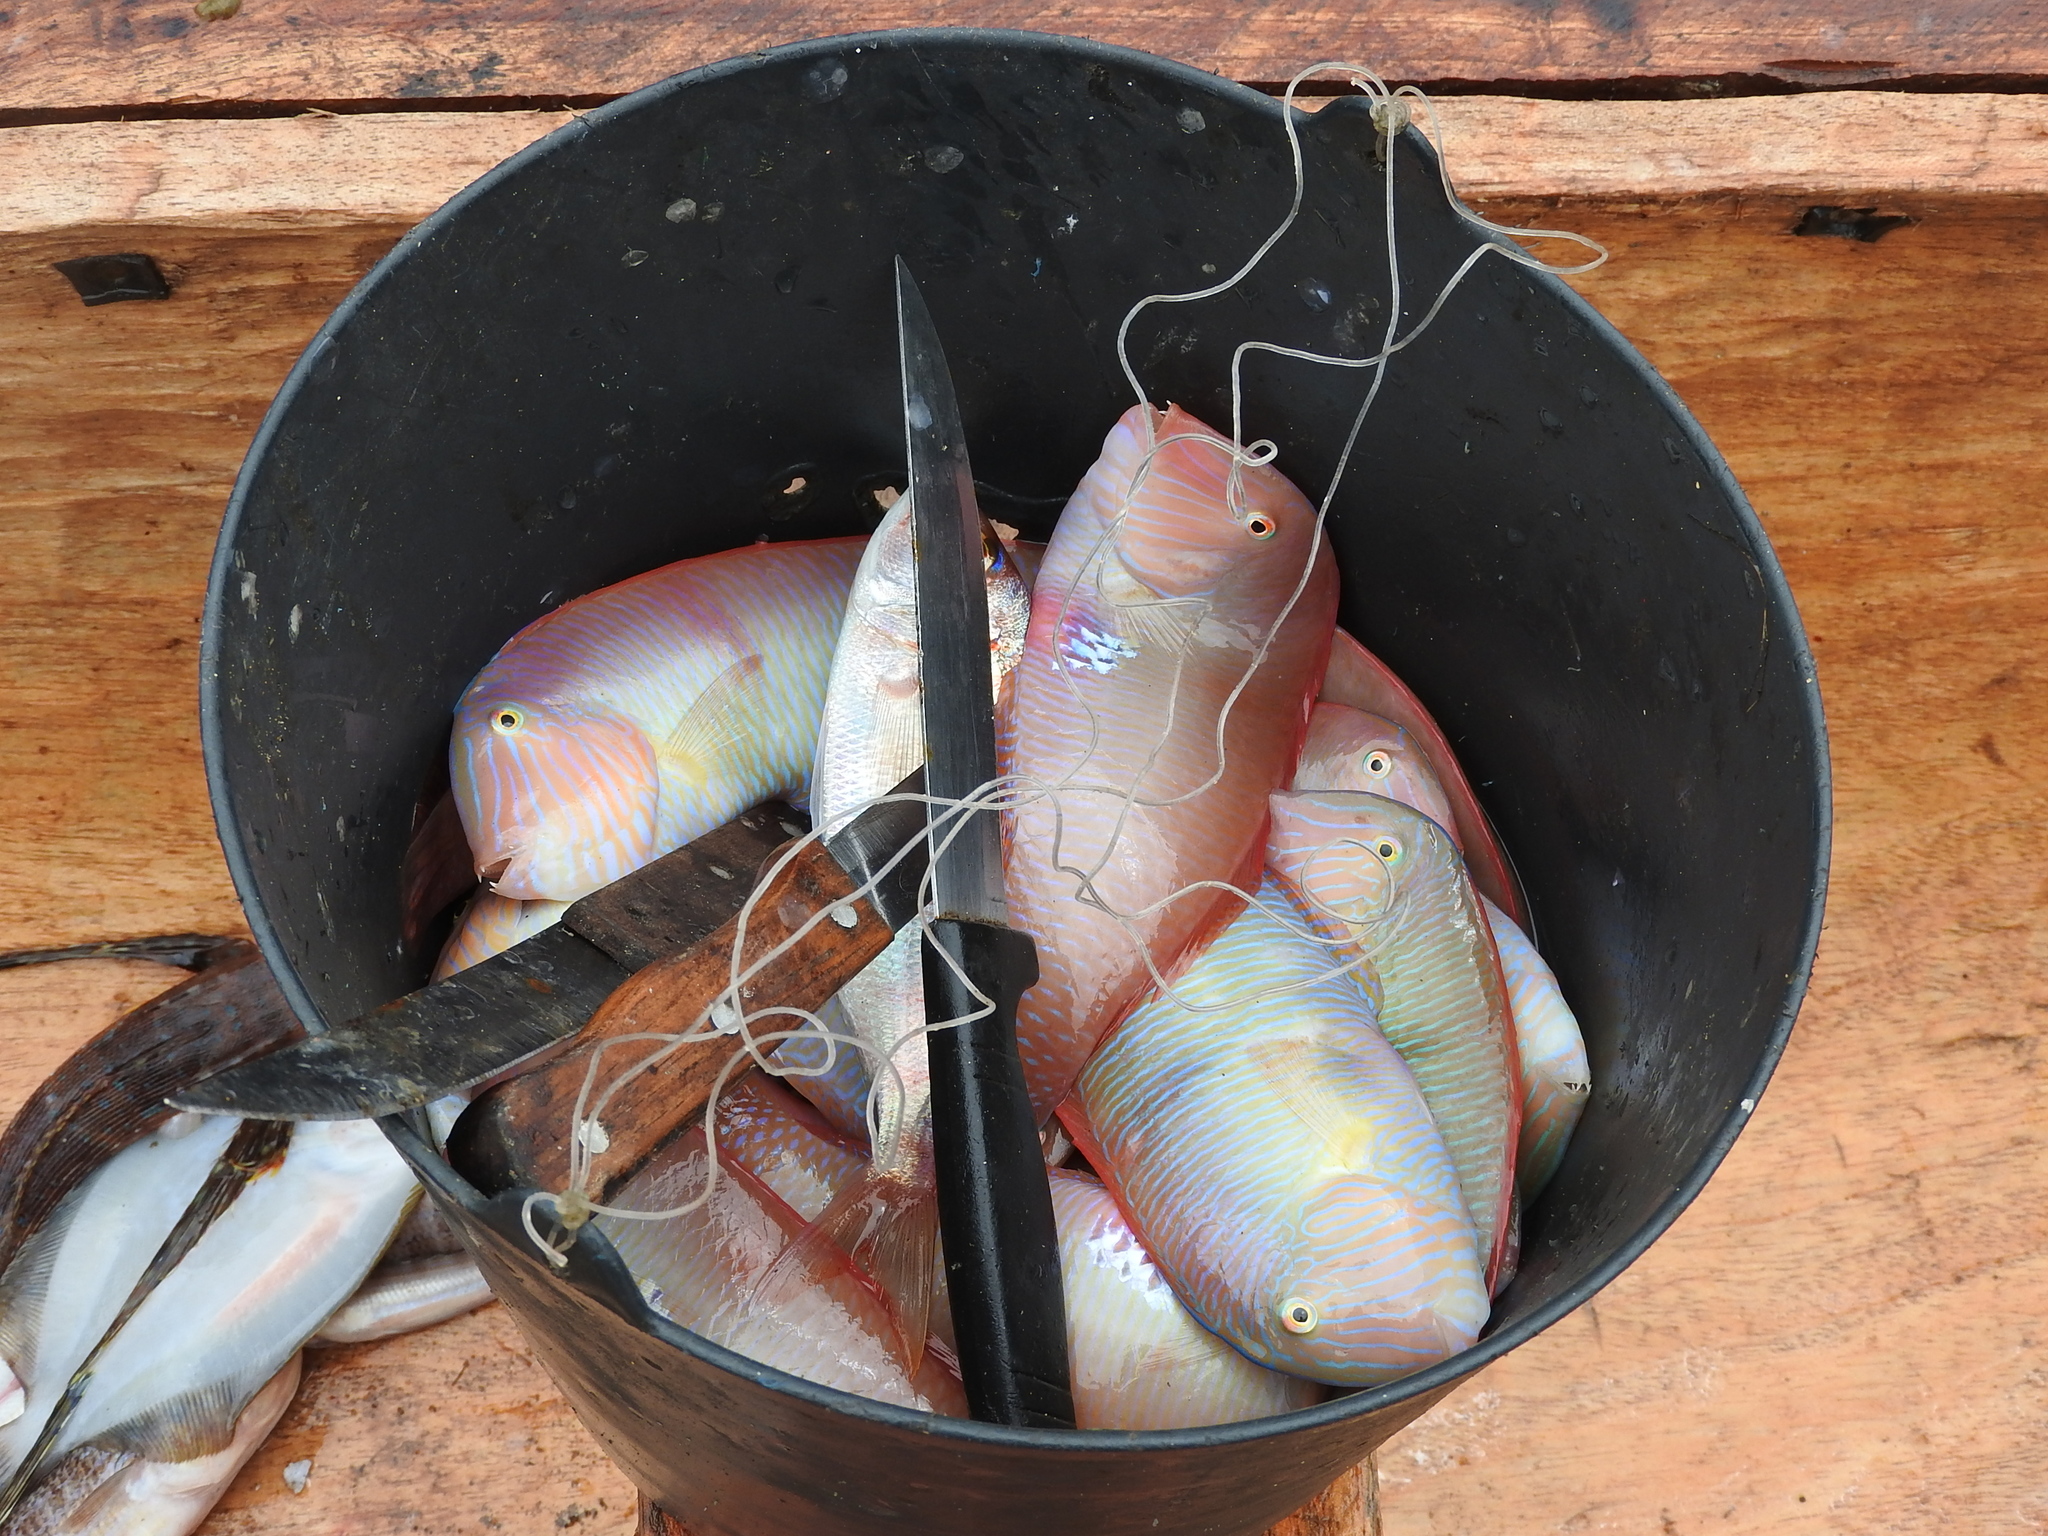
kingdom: Animalia
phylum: Chordata
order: Perciformes
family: Labridae
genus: Xyrichtys
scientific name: Xyrichtys novacula
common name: Pearly razorfish
